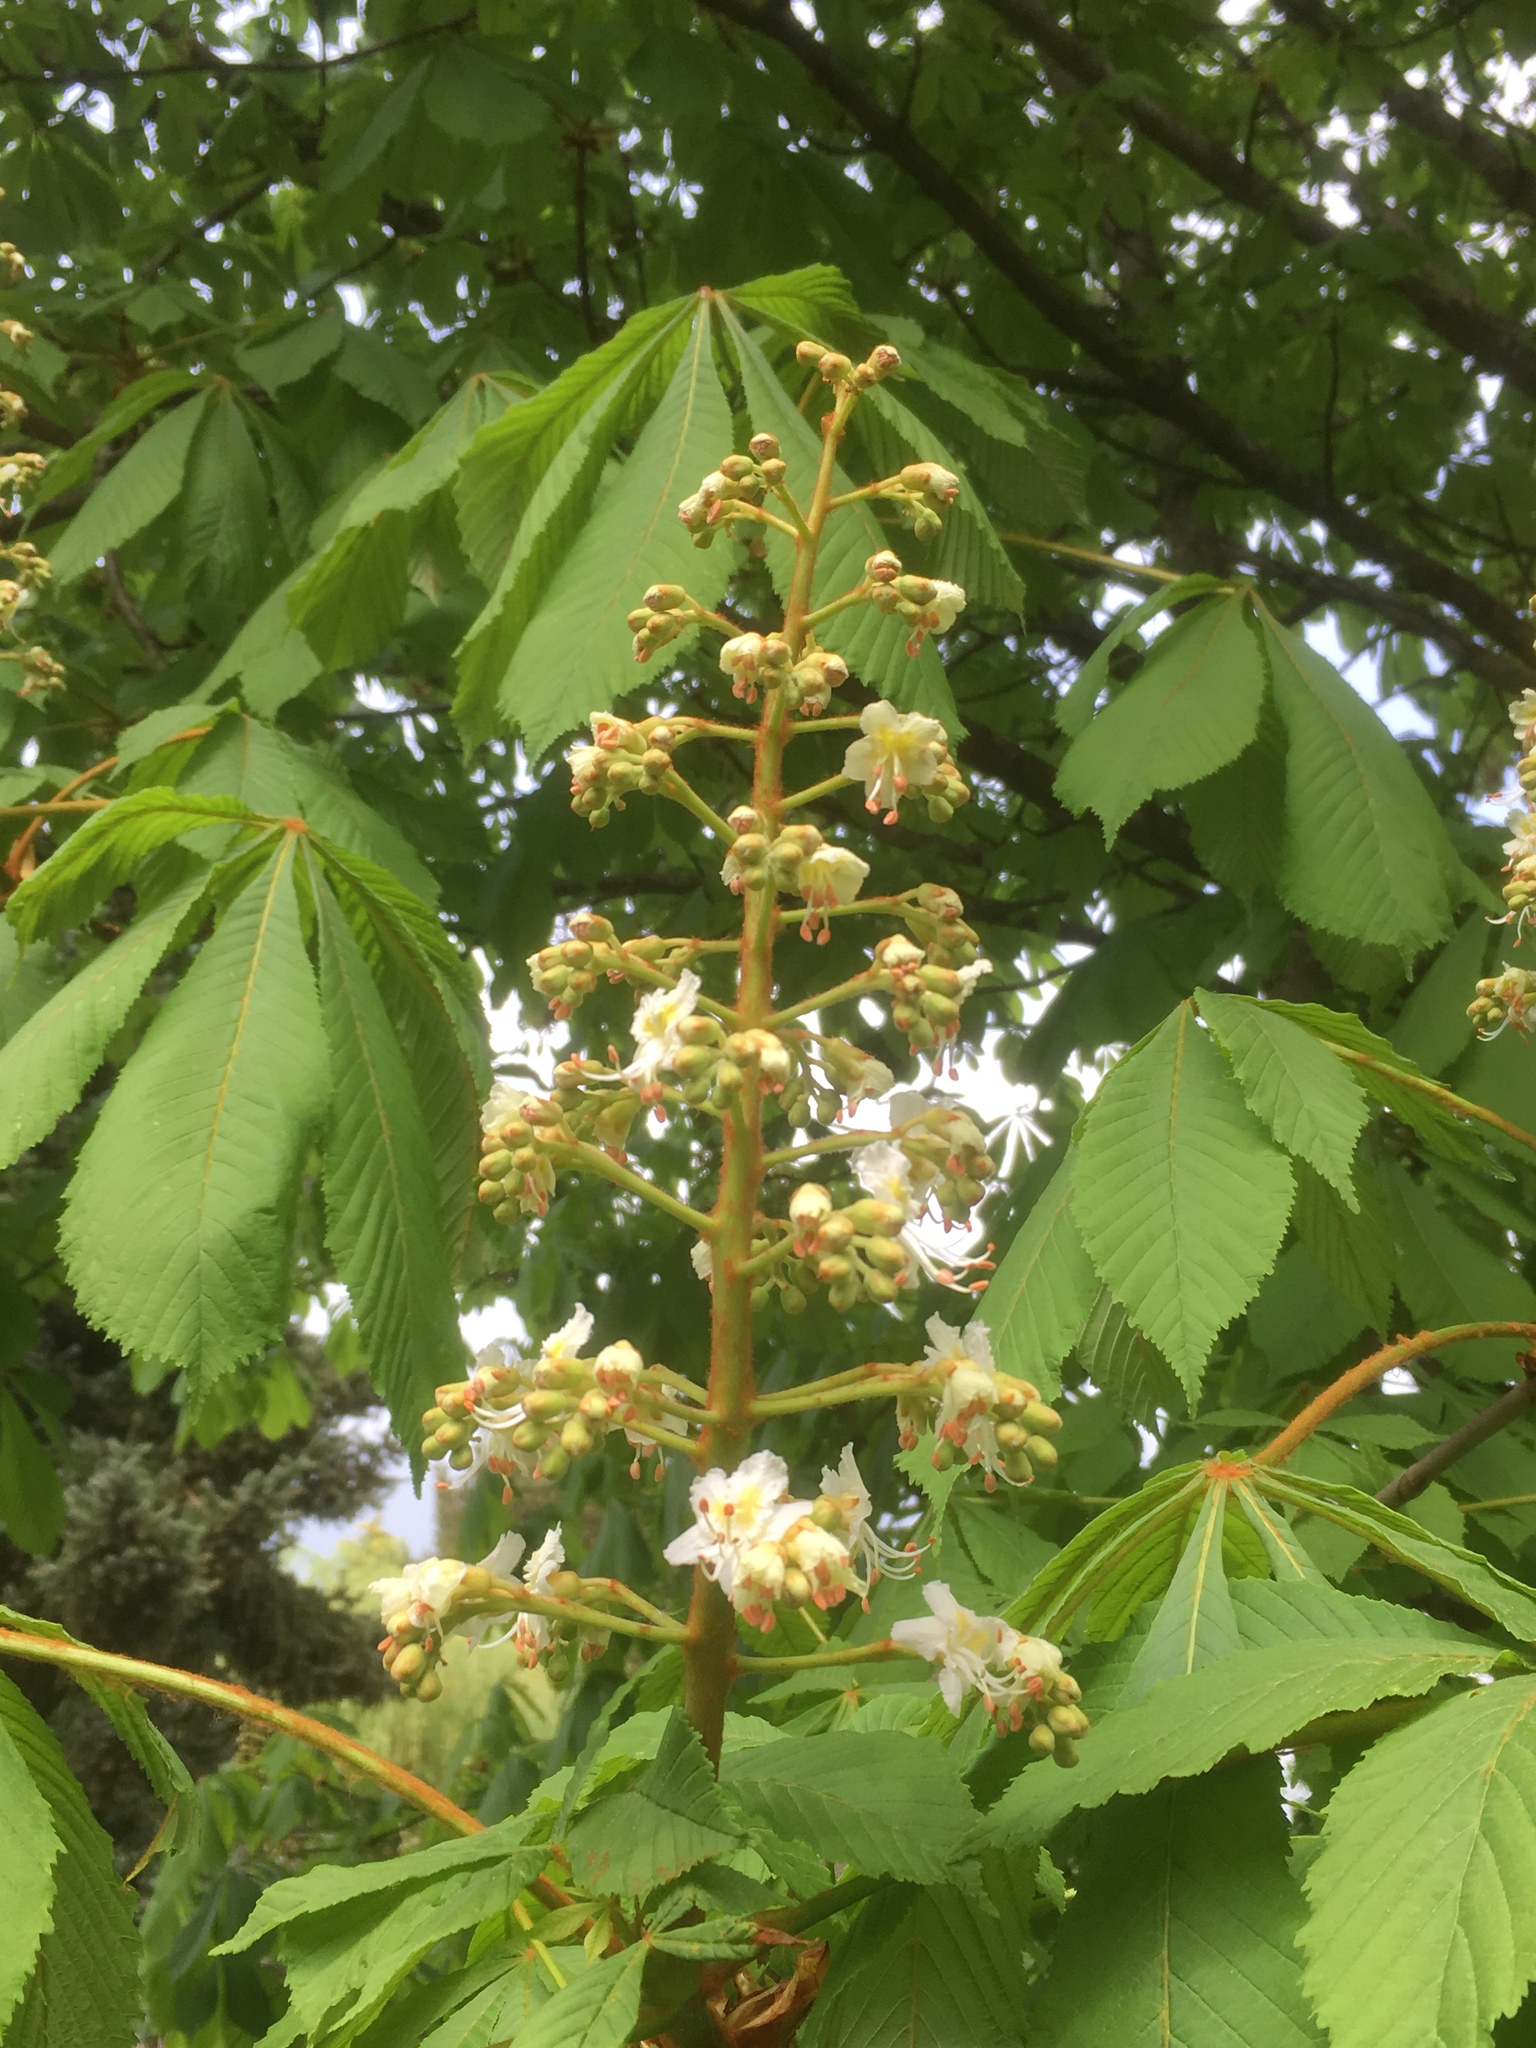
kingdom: Plantae
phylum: Tracheophyta
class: Magnoliopsida
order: Sapindales
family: Sapindaceae
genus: Aesculus
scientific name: Aesculus hippocastanum
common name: Horse-chestnut
